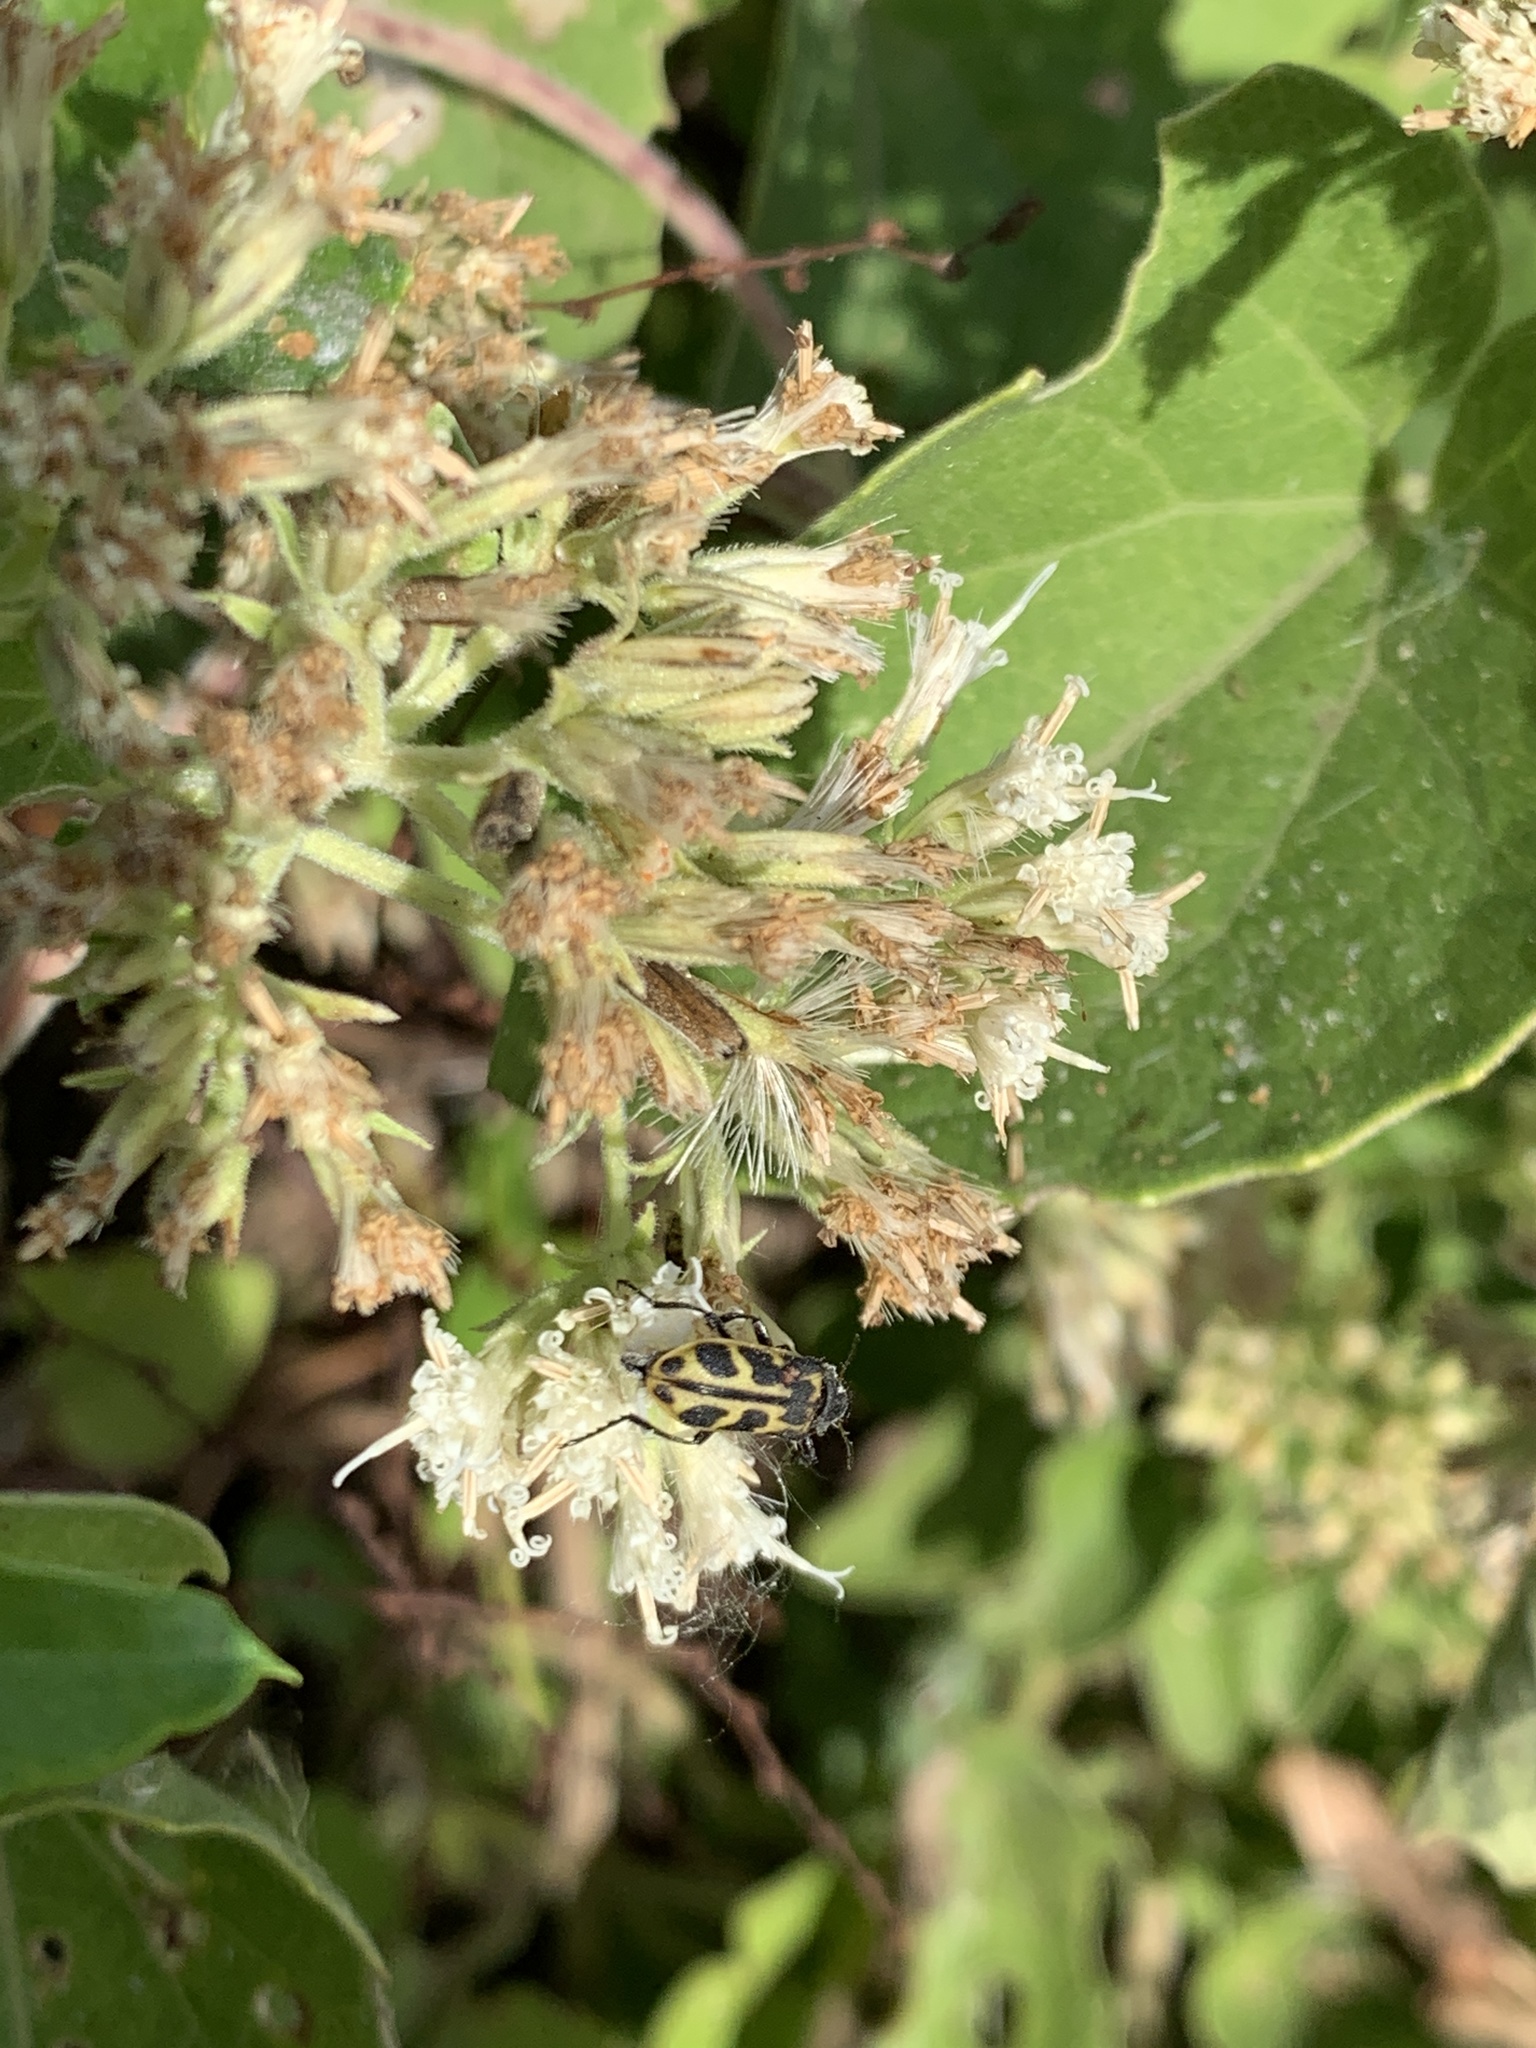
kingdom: Animalia
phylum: Arthropoda
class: Insecta
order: Coleoptera
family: Melyridae
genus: Astylus
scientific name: Astylus atromaculatus
